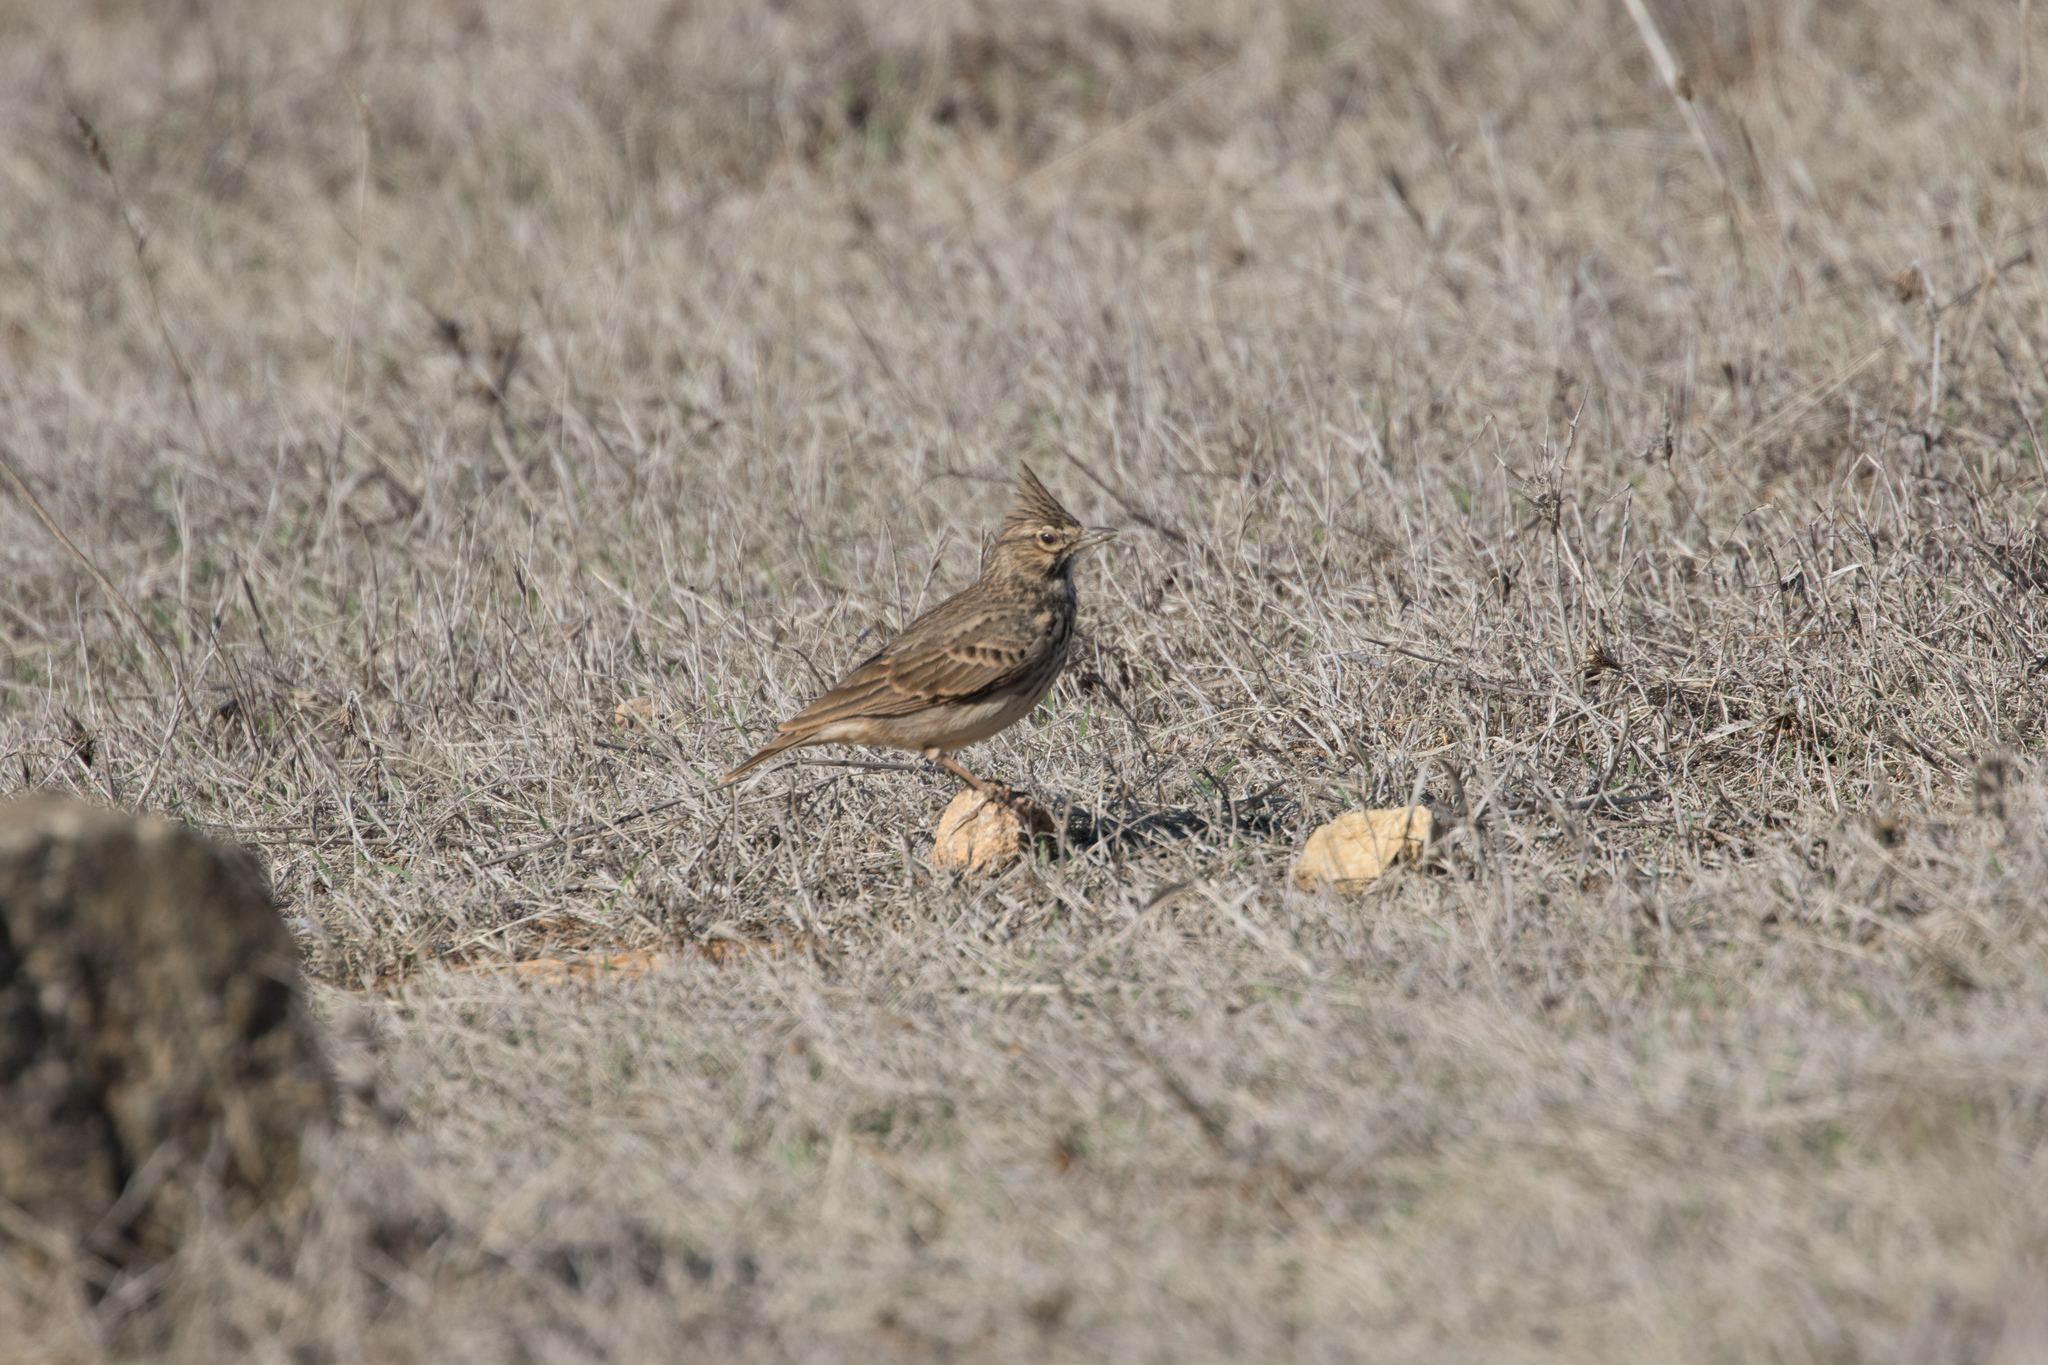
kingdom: Animalia
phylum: Chordata
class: Aves
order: Passeriformes
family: Alaudidae
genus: Galerida
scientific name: Galerida theklae
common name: Thekla lark
